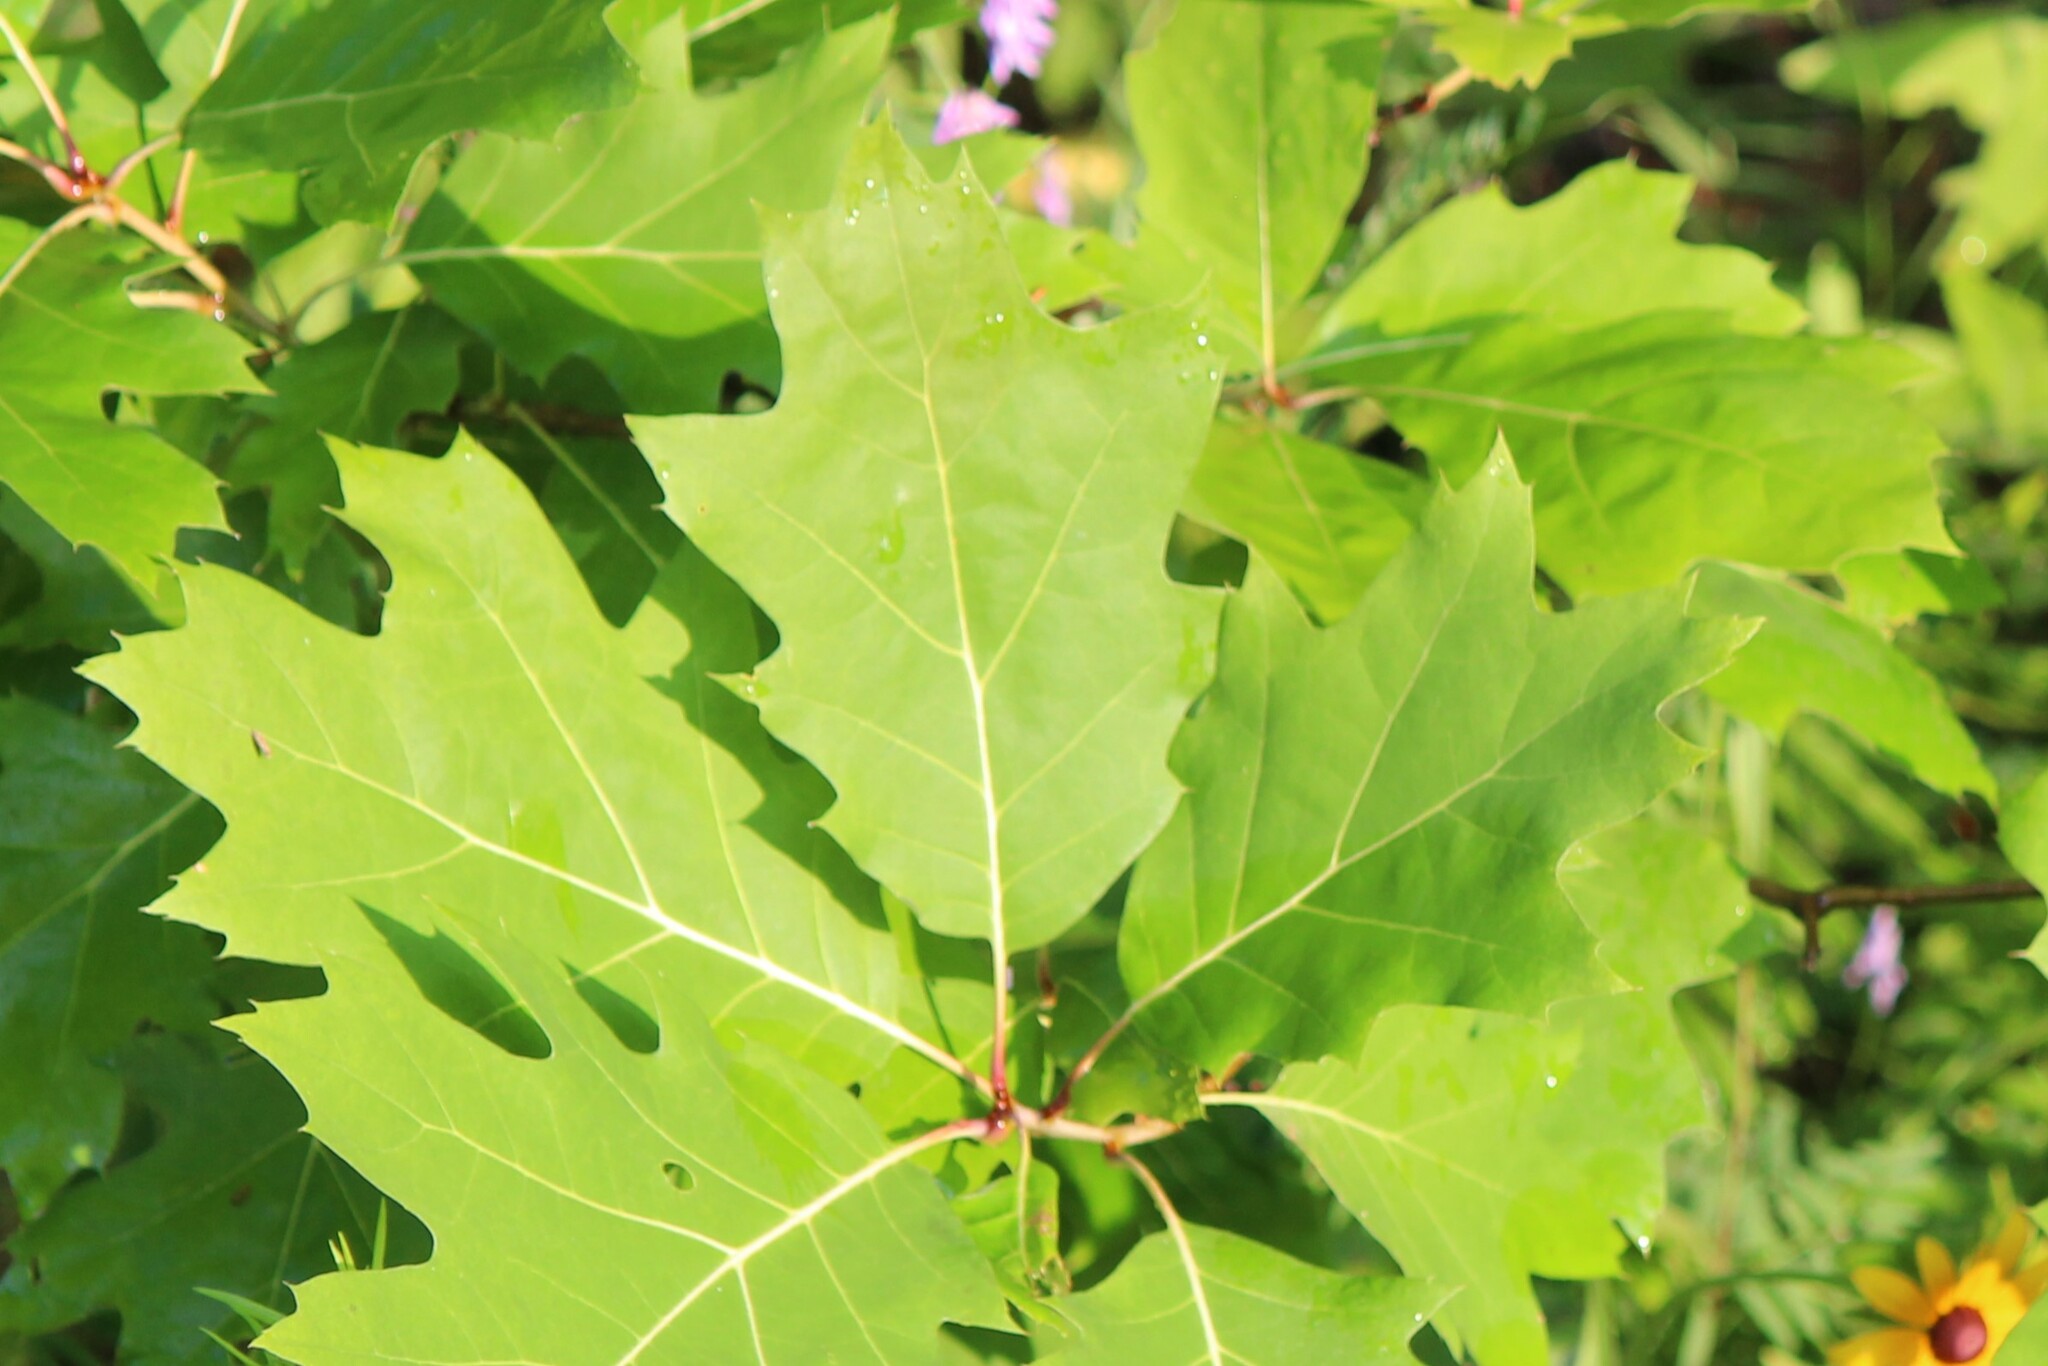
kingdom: Plantae
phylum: Tracheophyta
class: Magnoliopsida
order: Fagales
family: Fagaceae
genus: Quercus
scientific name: Quercus rubra
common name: Red oak
